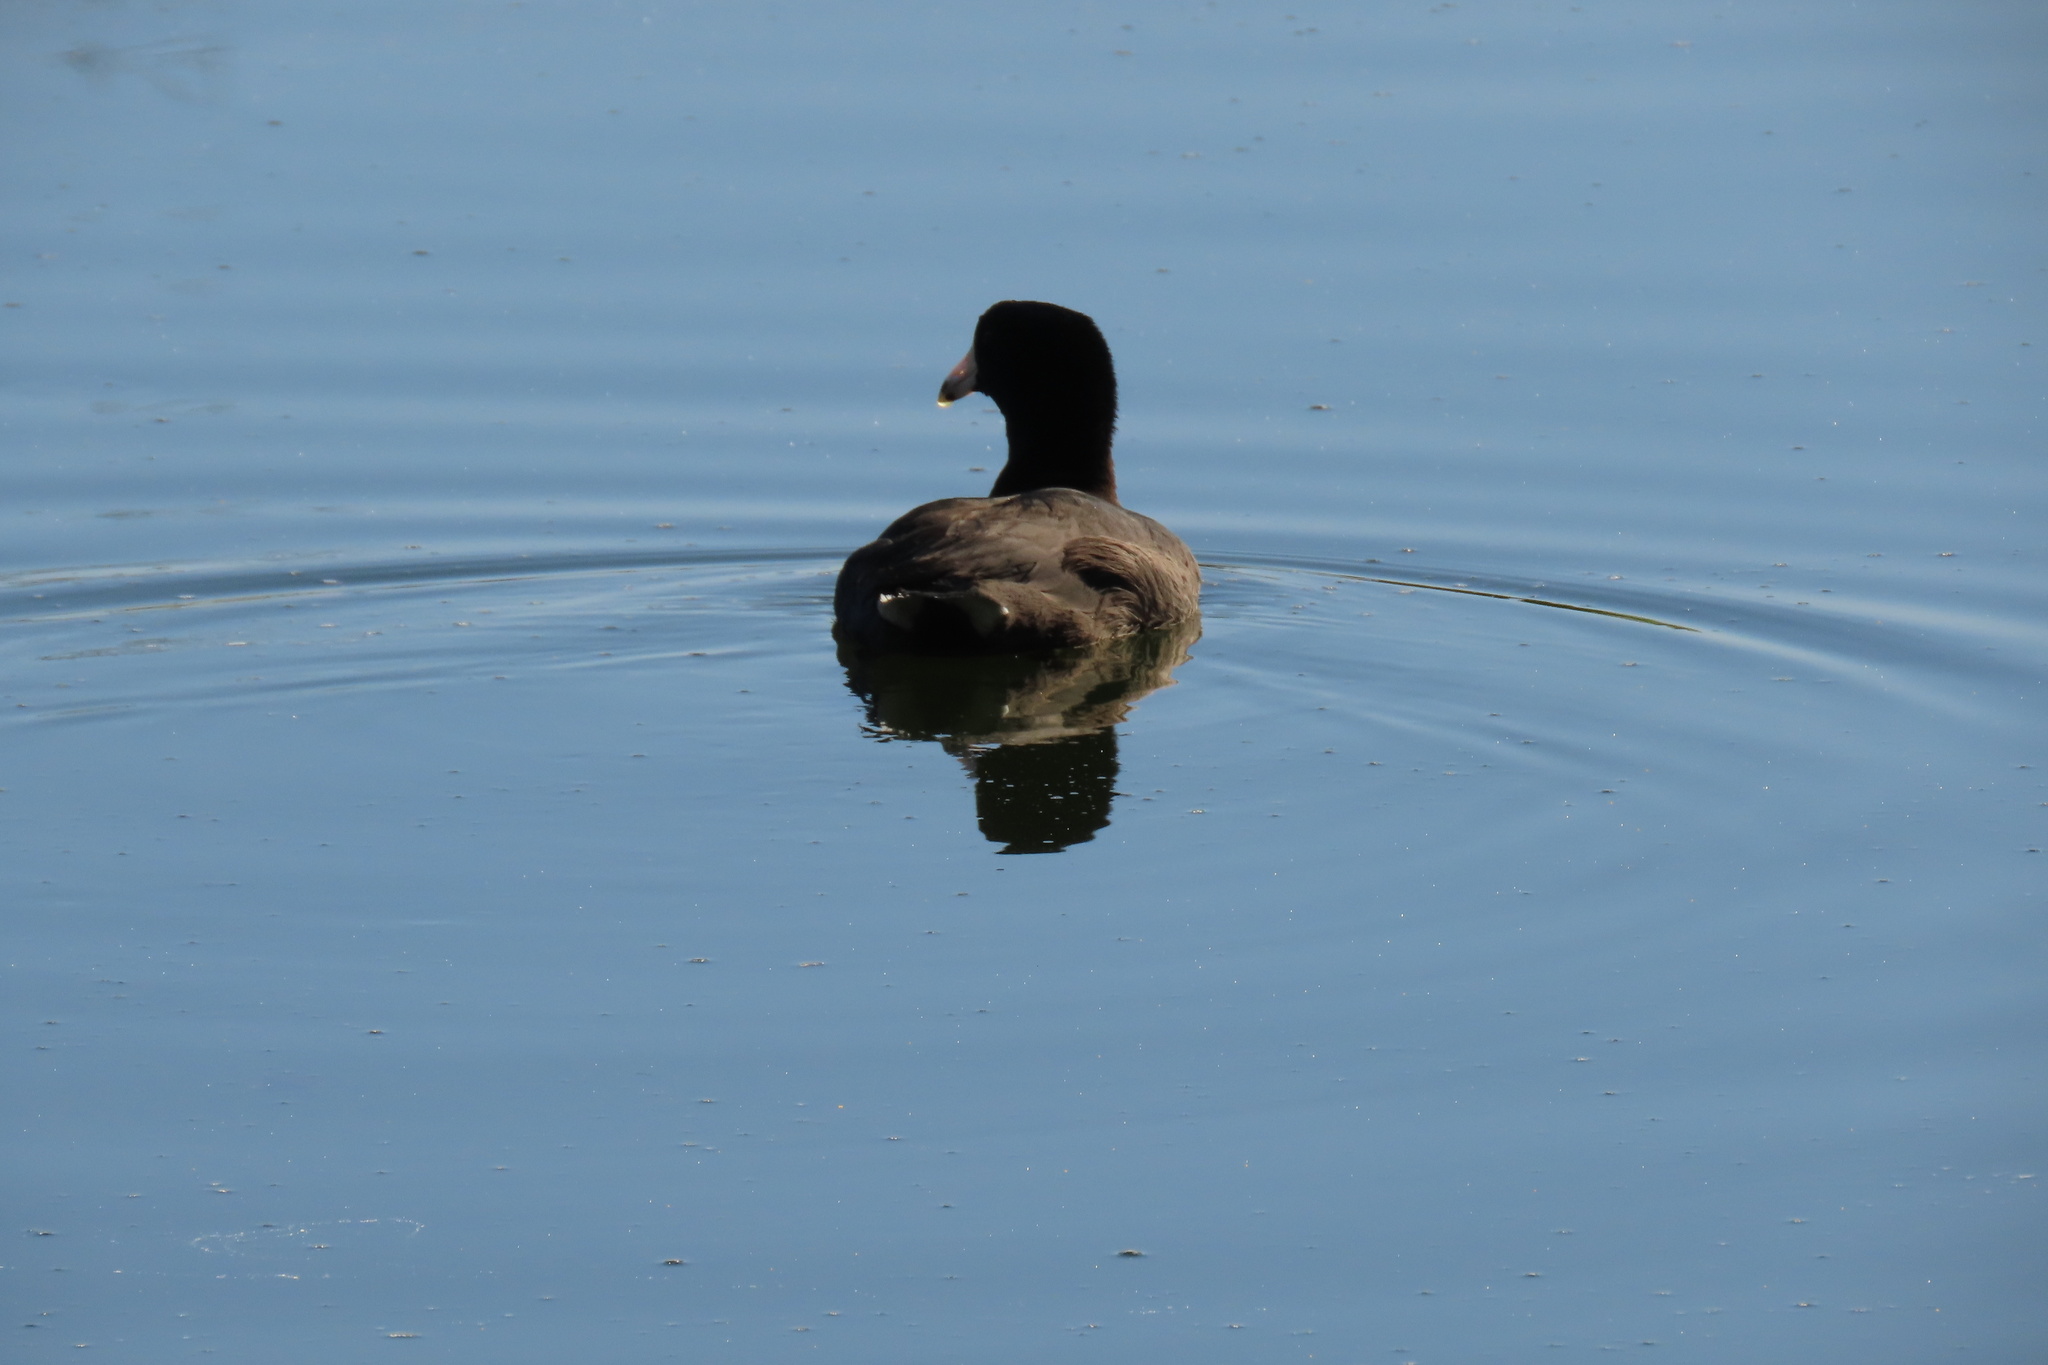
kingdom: Animalia
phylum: Chordata
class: Aves
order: Gruiformes
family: Rallidae
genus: Fulica
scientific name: Fulica americana
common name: American coot
